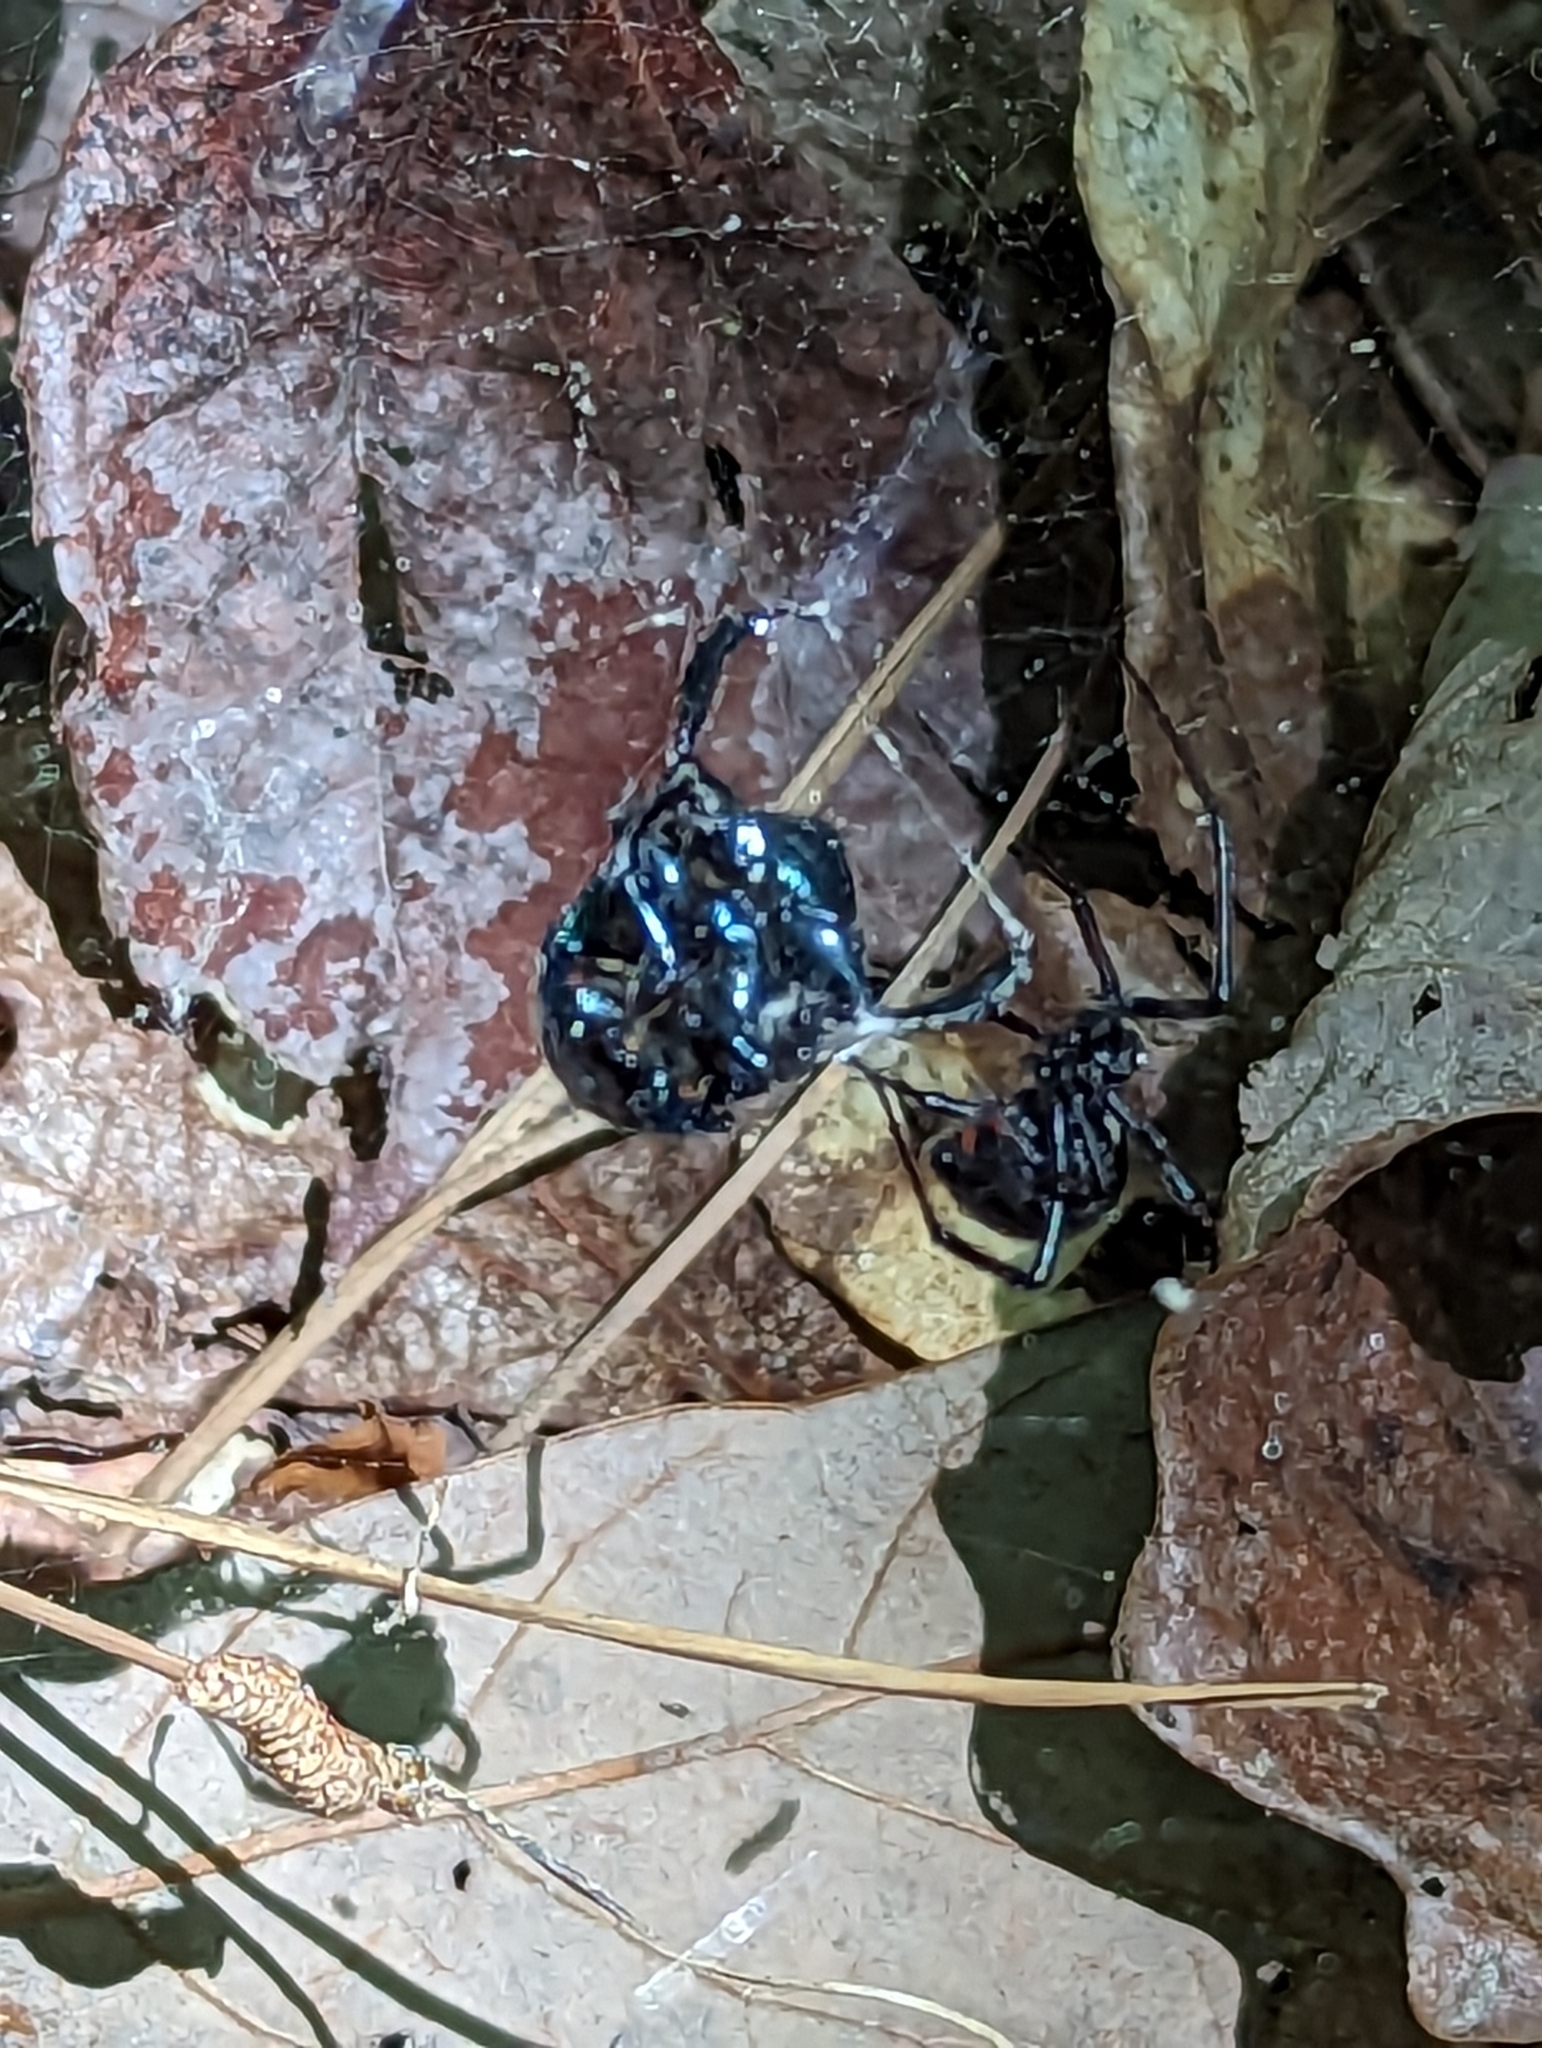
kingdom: Animalia
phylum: Arthropoda
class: Arachnida
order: Araneae
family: Theridiidae
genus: Latrodectus
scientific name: Latrodectus variolus
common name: Northern black widow
